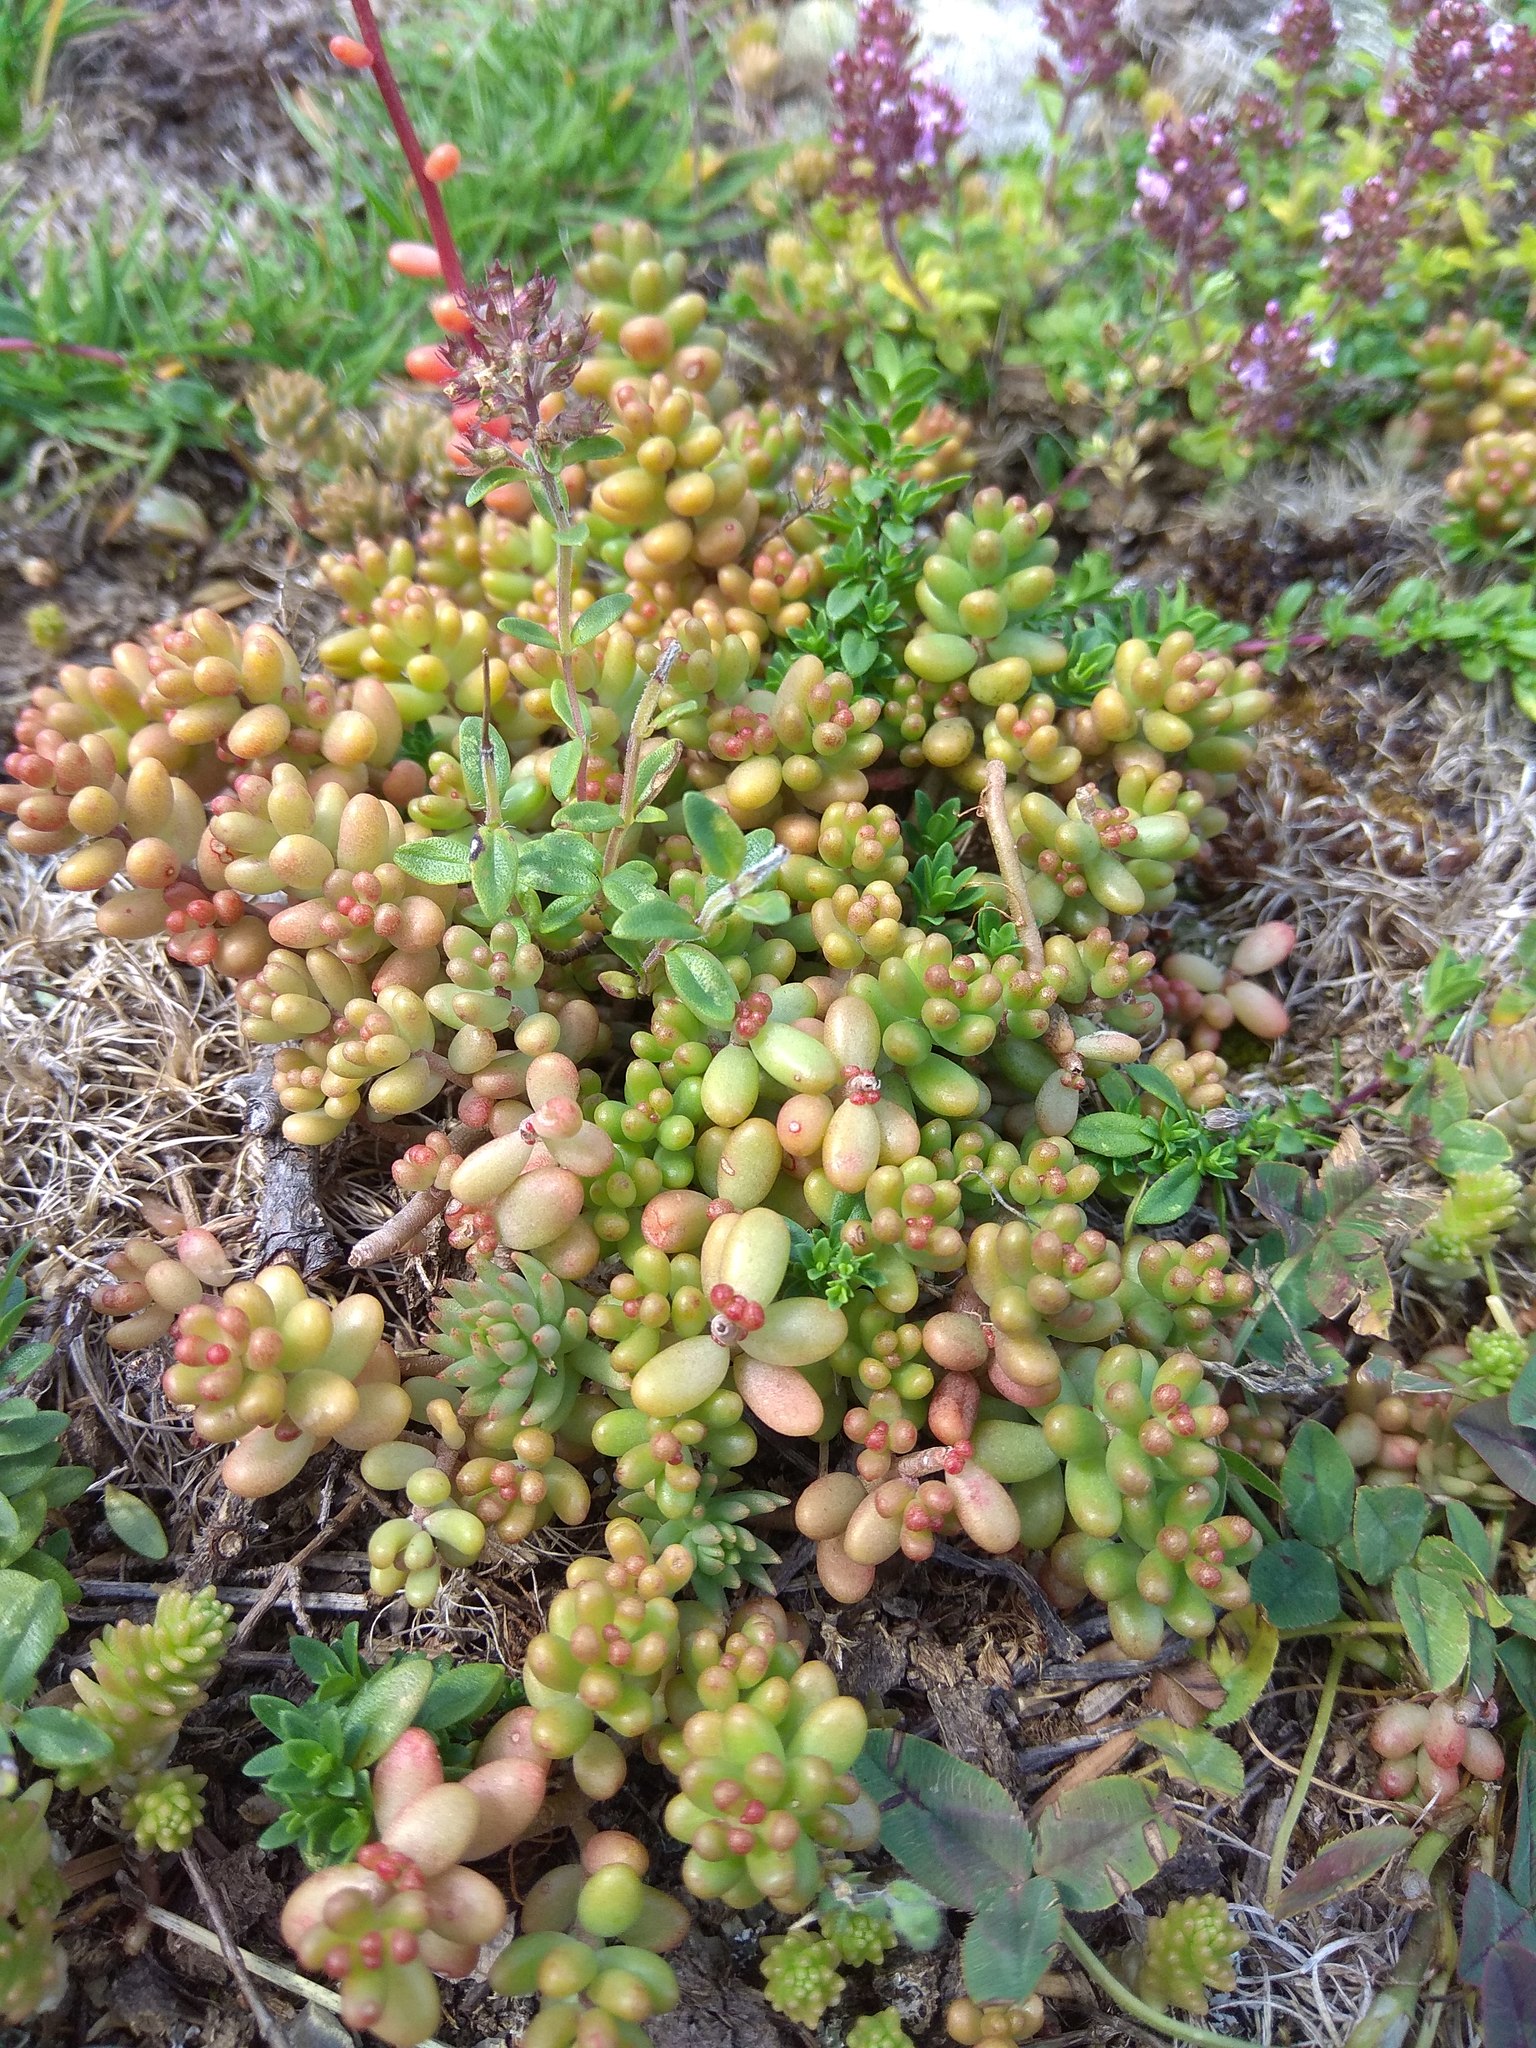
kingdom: Plantae
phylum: Tracheophyta
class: Magnoliopsida
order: Saxifragales
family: Crassulaceae
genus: Sedum
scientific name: Sedum album
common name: White stonecrop
